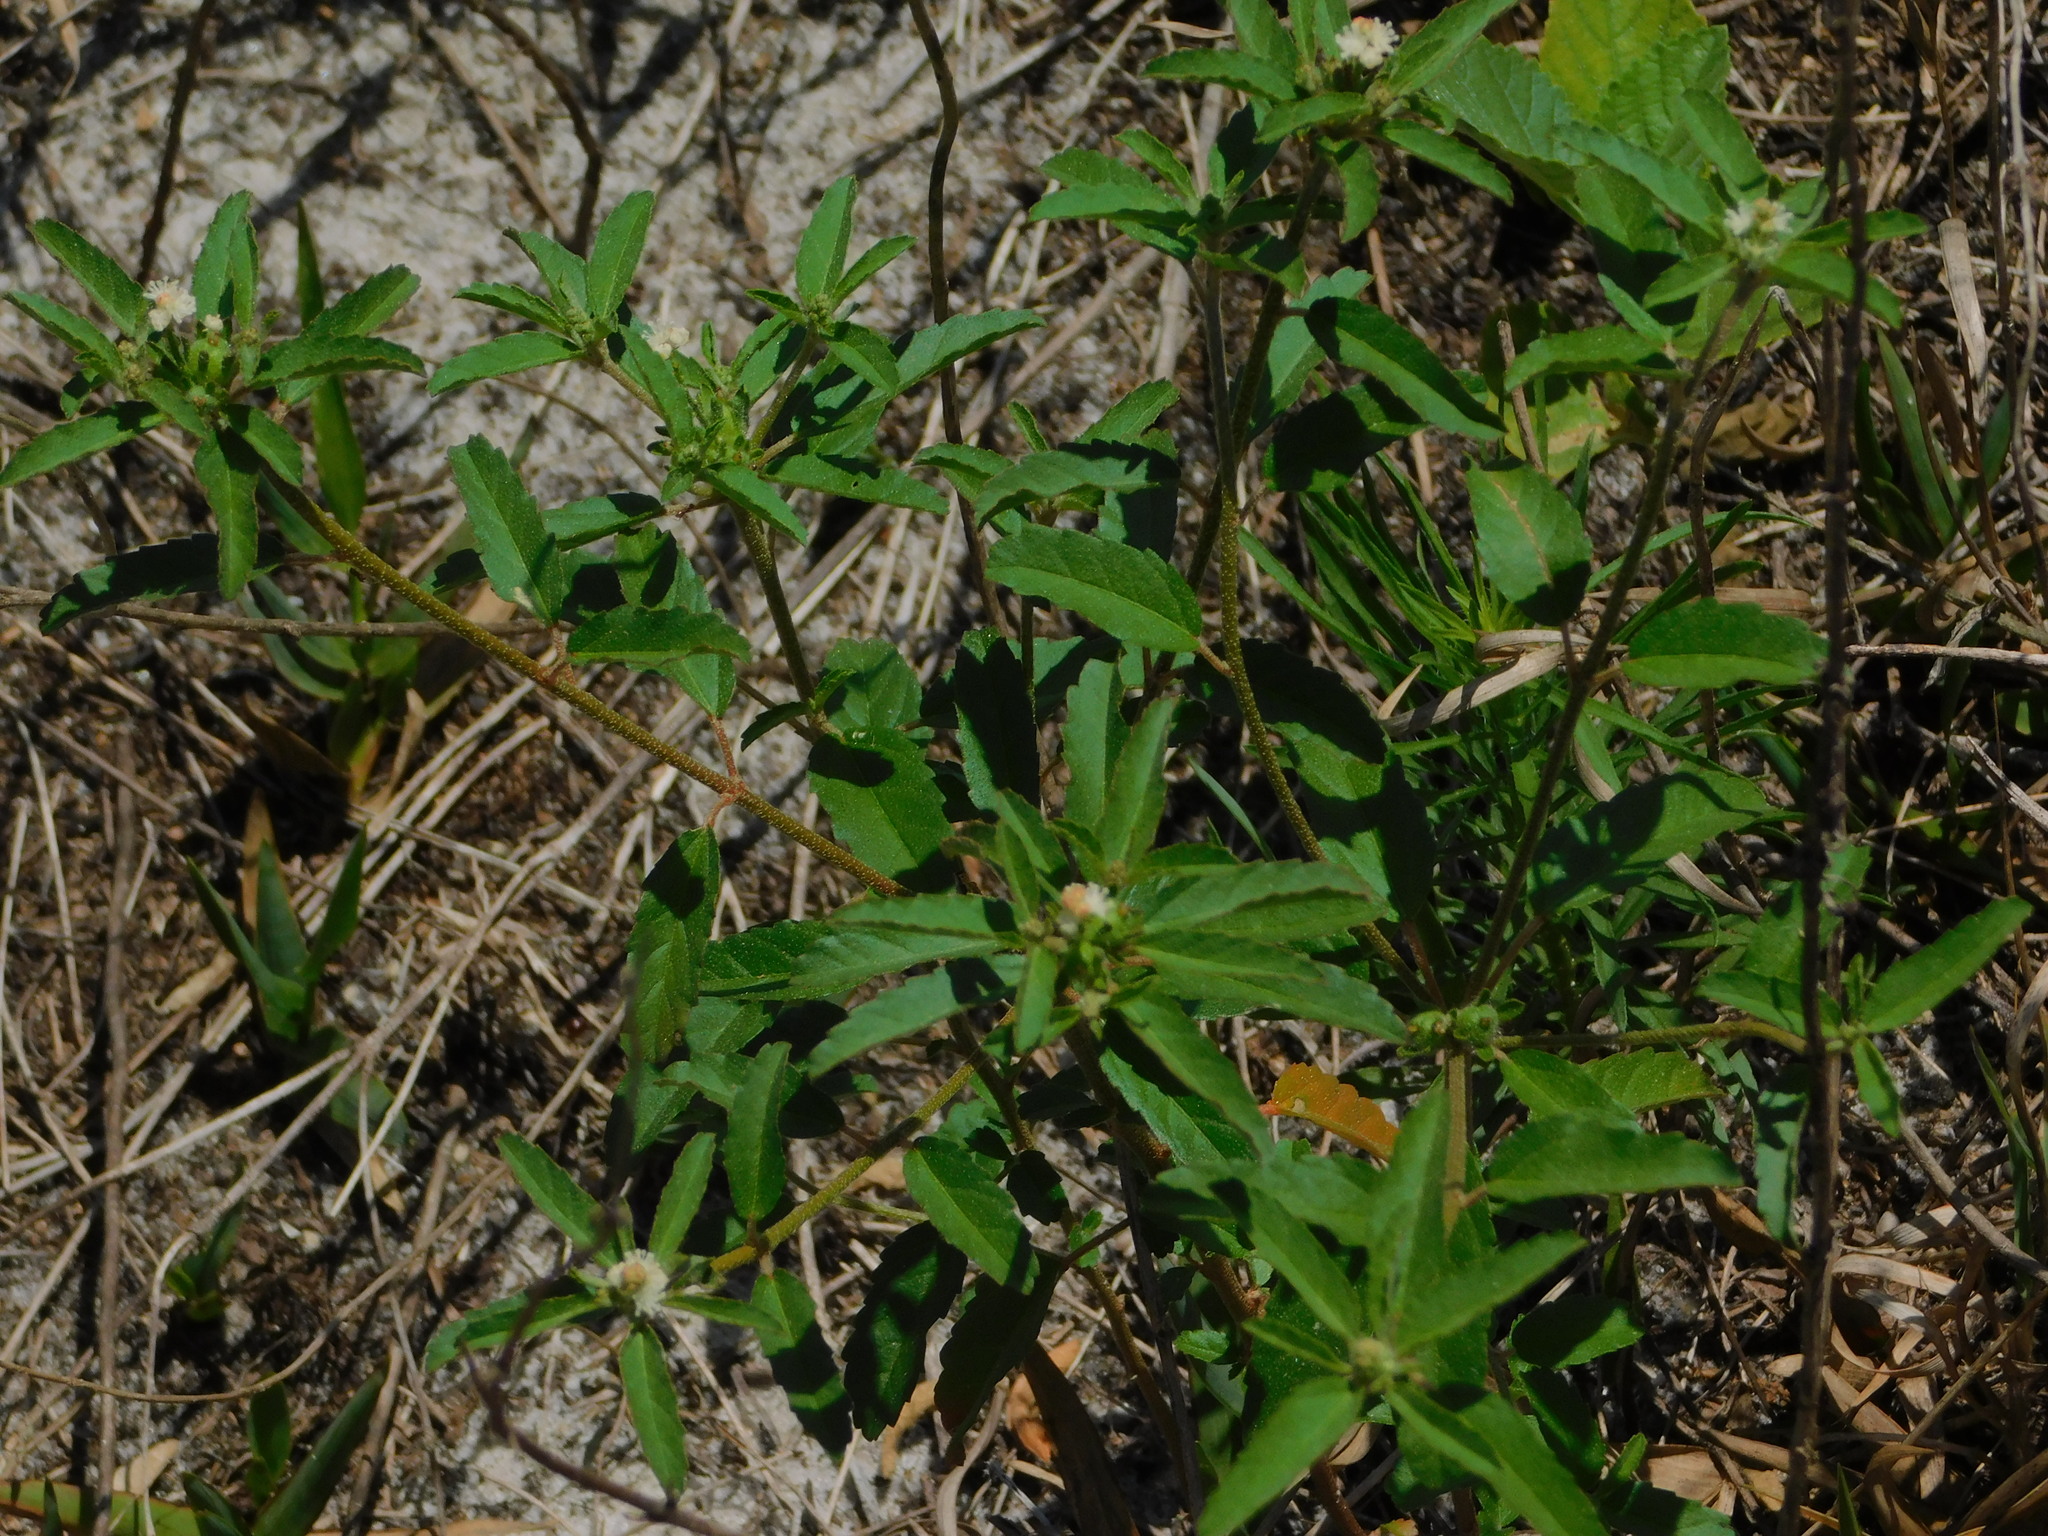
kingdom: Plantae
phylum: Tracheophyta
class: Magnoliopsida
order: Malpighiales
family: Euphorbiaceae
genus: Croton
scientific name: Croton glandulosus
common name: Tropic croton
